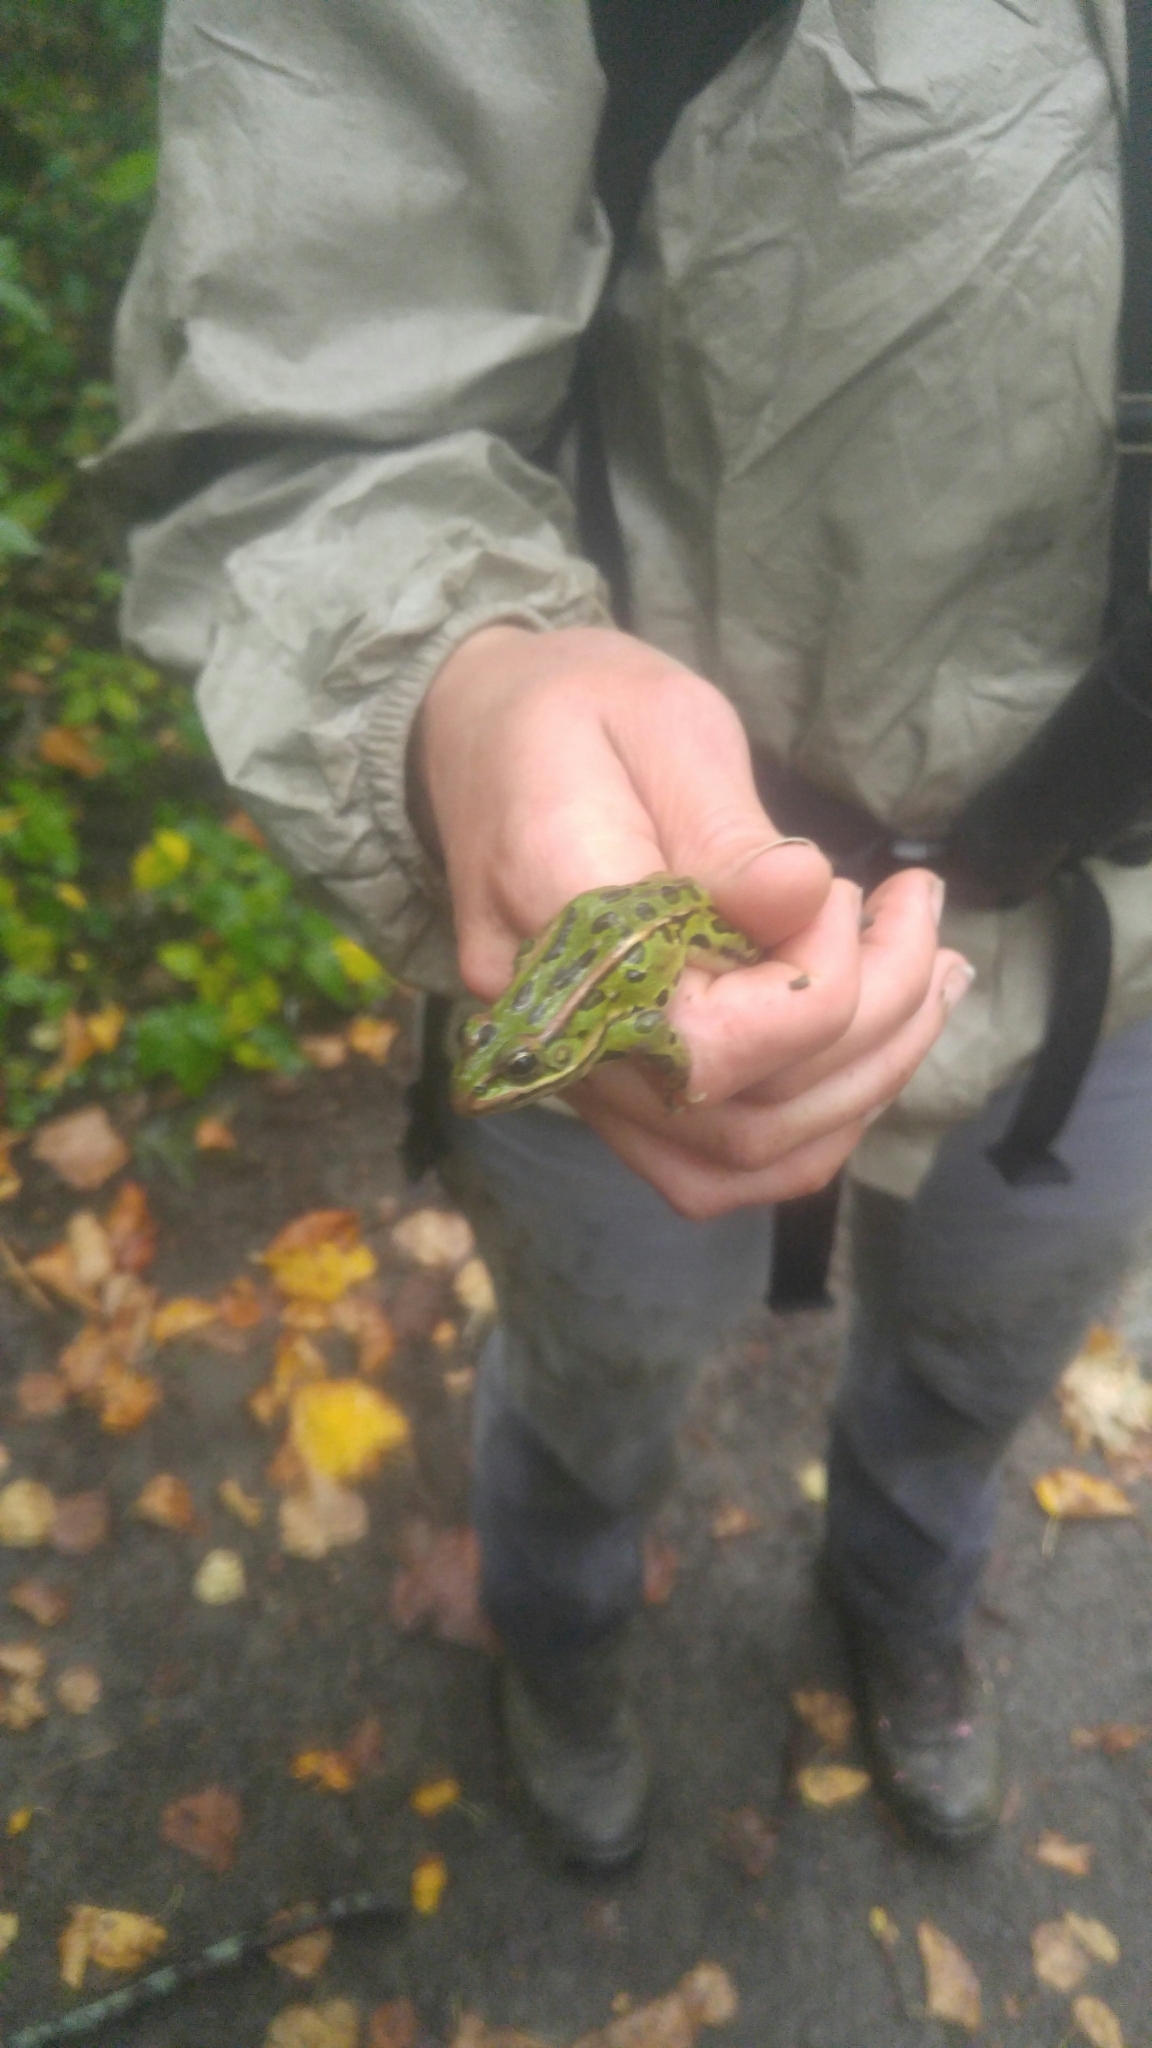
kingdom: Animalia
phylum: Chordata
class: Amphibia
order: Anura
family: Ranidae
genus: Lithobates
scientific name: Lithobates pipiens
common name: Northern leopard frog
